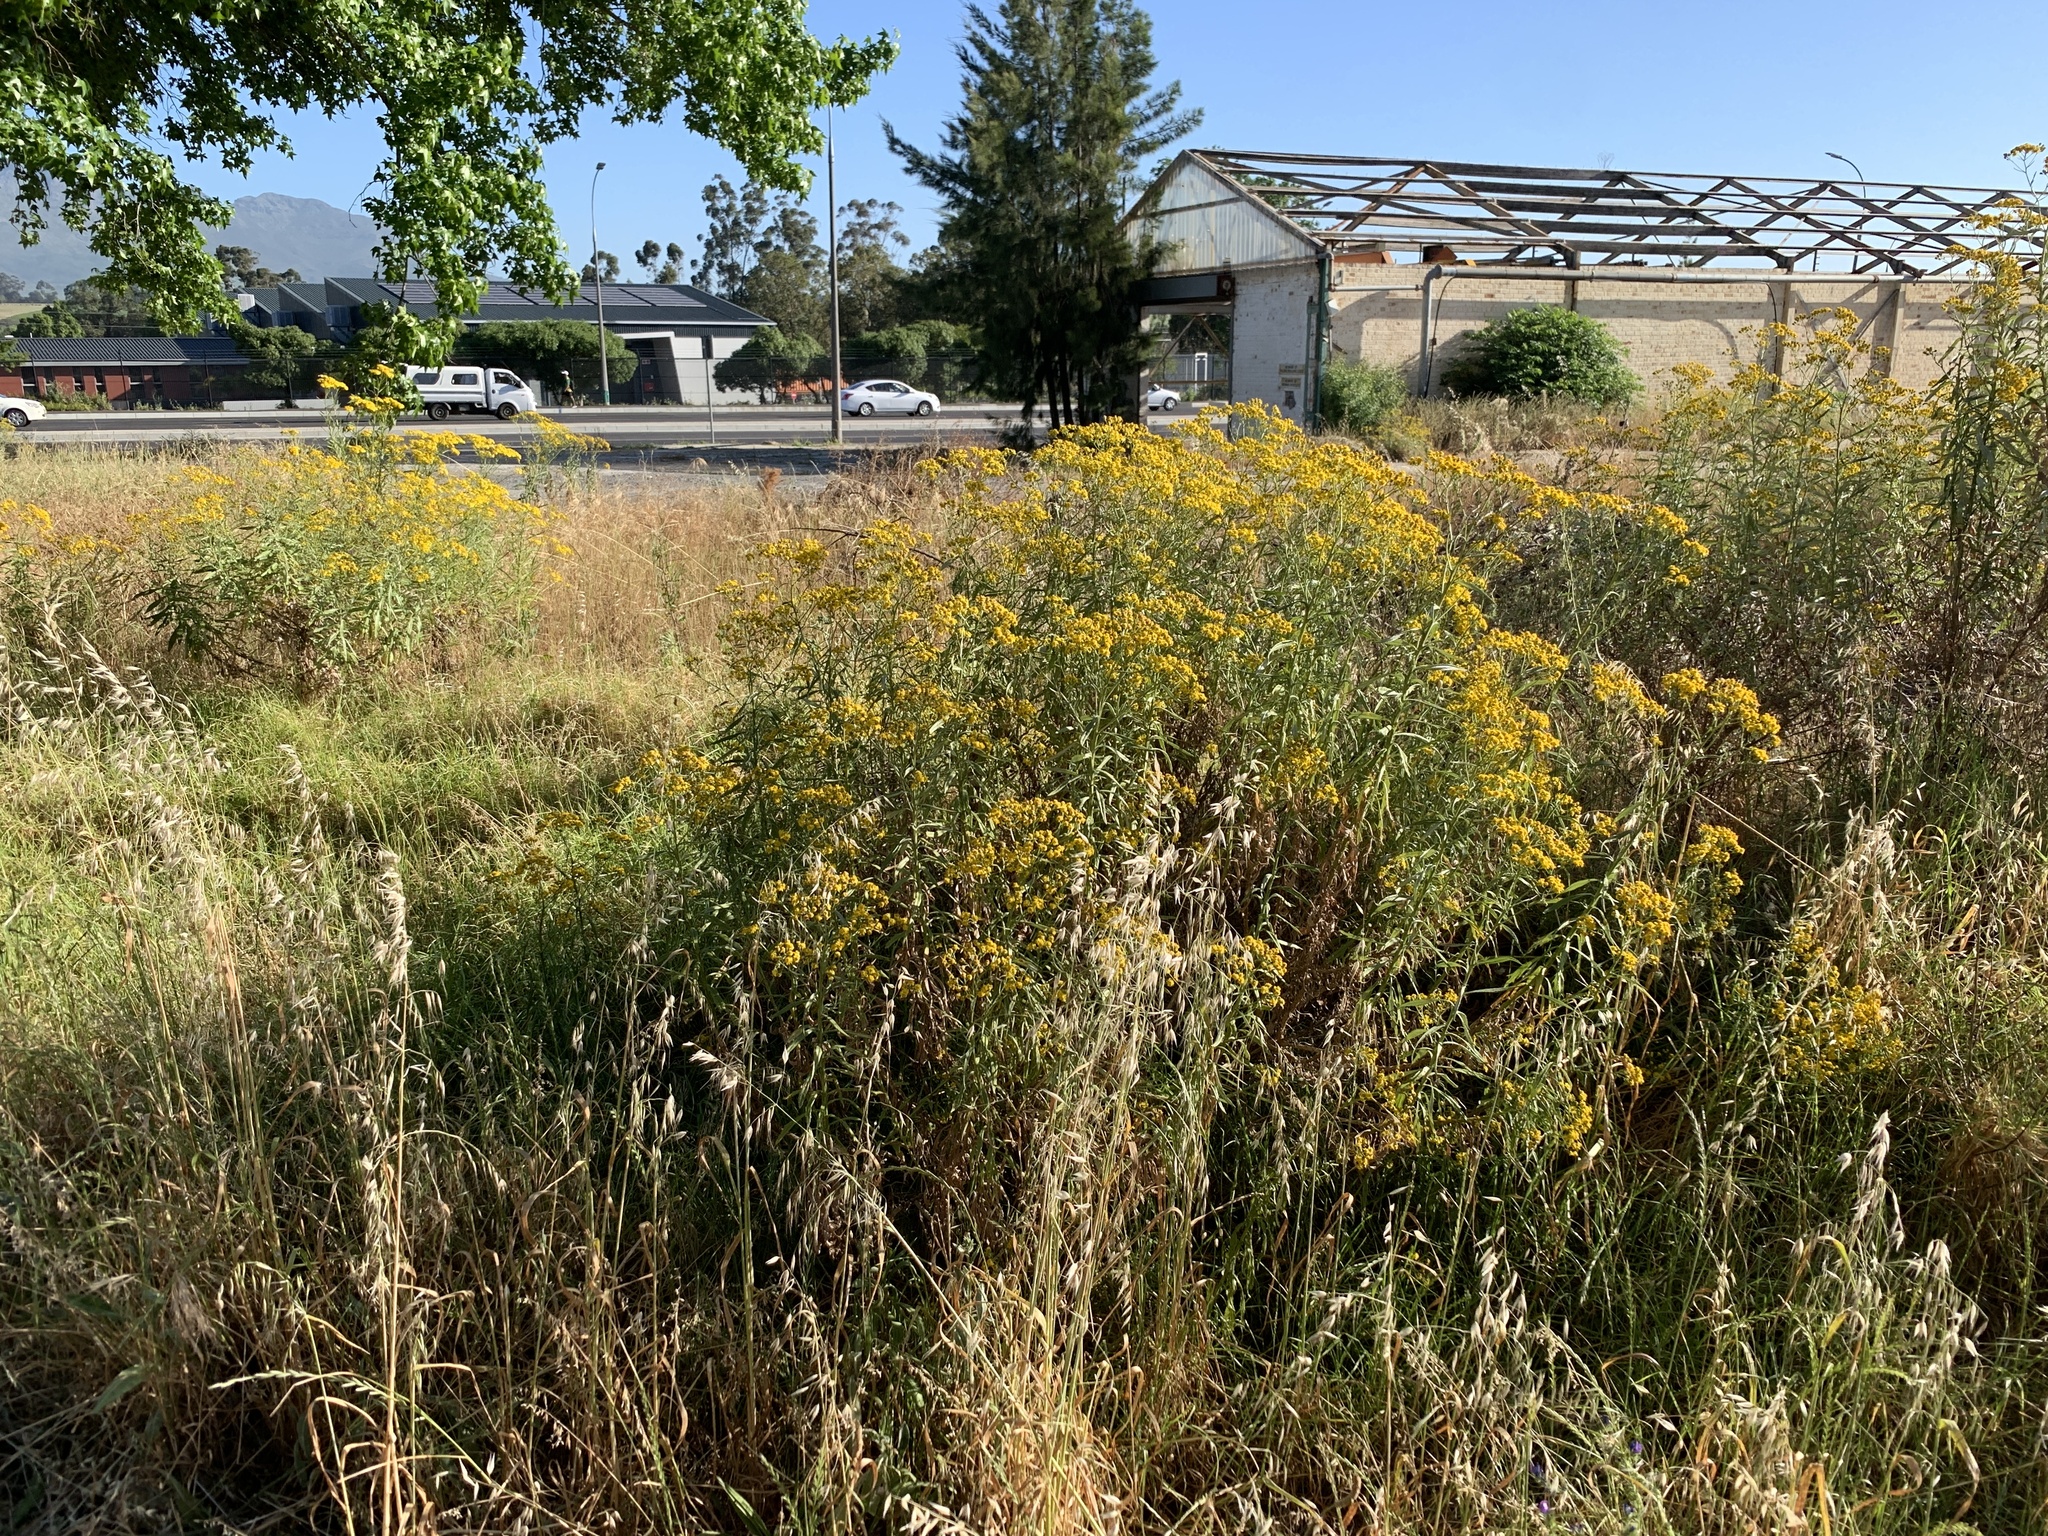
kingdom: Plantae
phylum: Tracheophyta
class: Magnoliopsida
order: Asterales
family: Asteraceae
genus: Senecio
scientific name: Senecio pterophorus
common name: Shoddy ragwort
